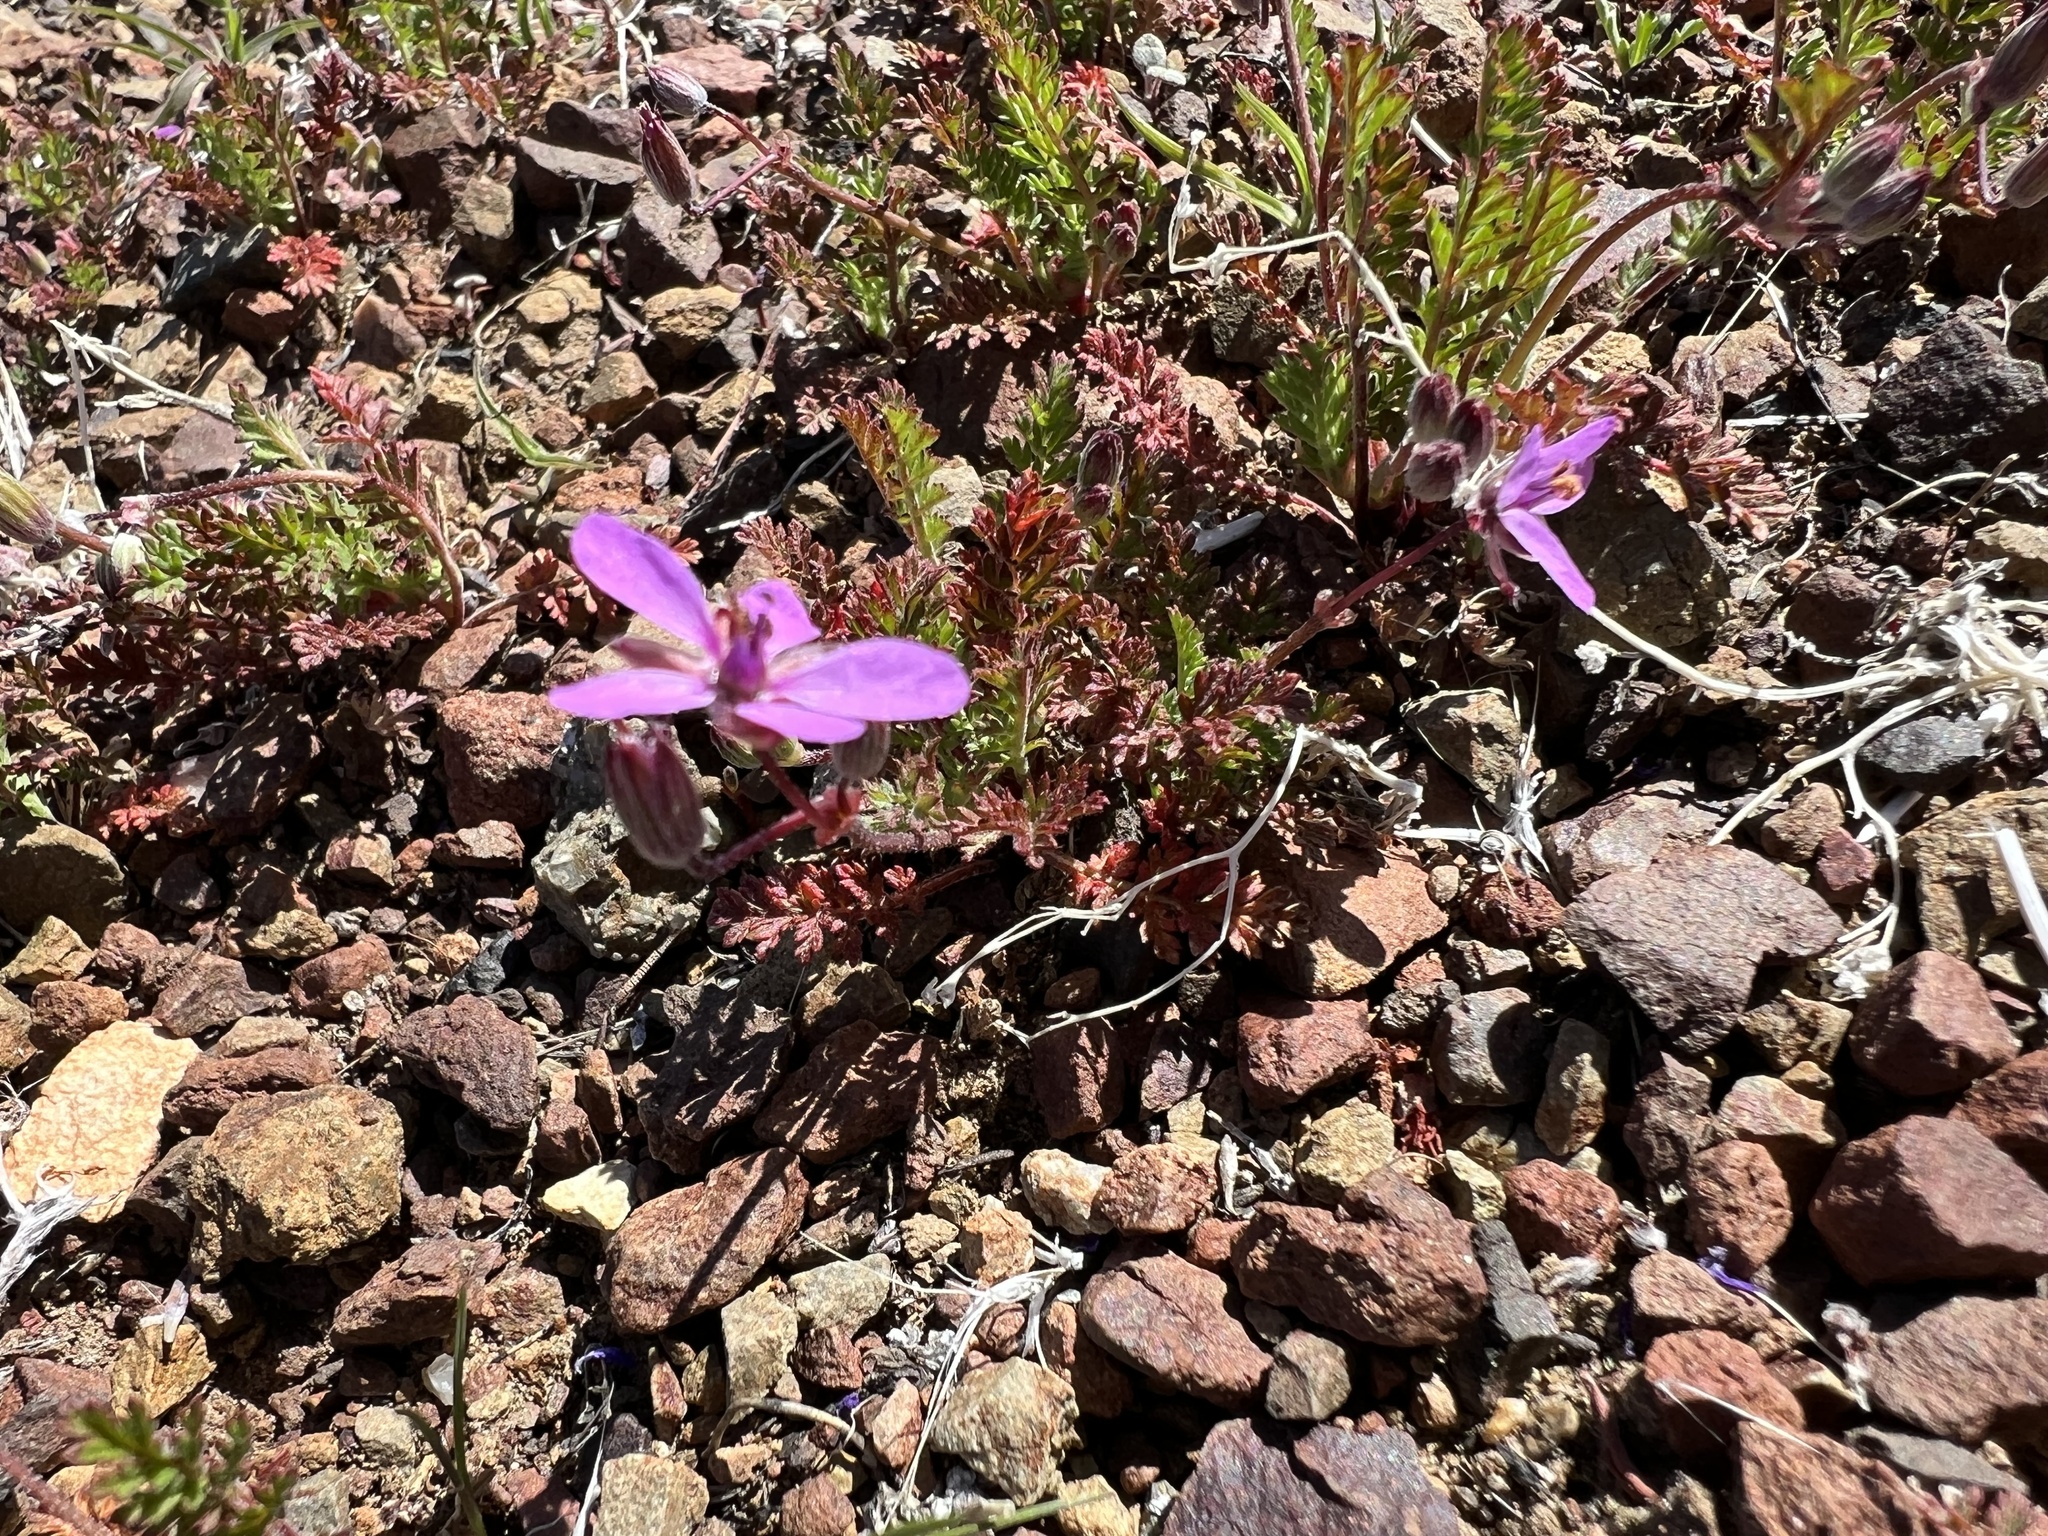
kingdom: Plantae
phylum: Tracheophyta
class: Magnoliopsida
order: Geraniales
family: Geraniaceae
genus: Erodium
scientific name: Erodium cicutarium
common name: Common stork's-bill
